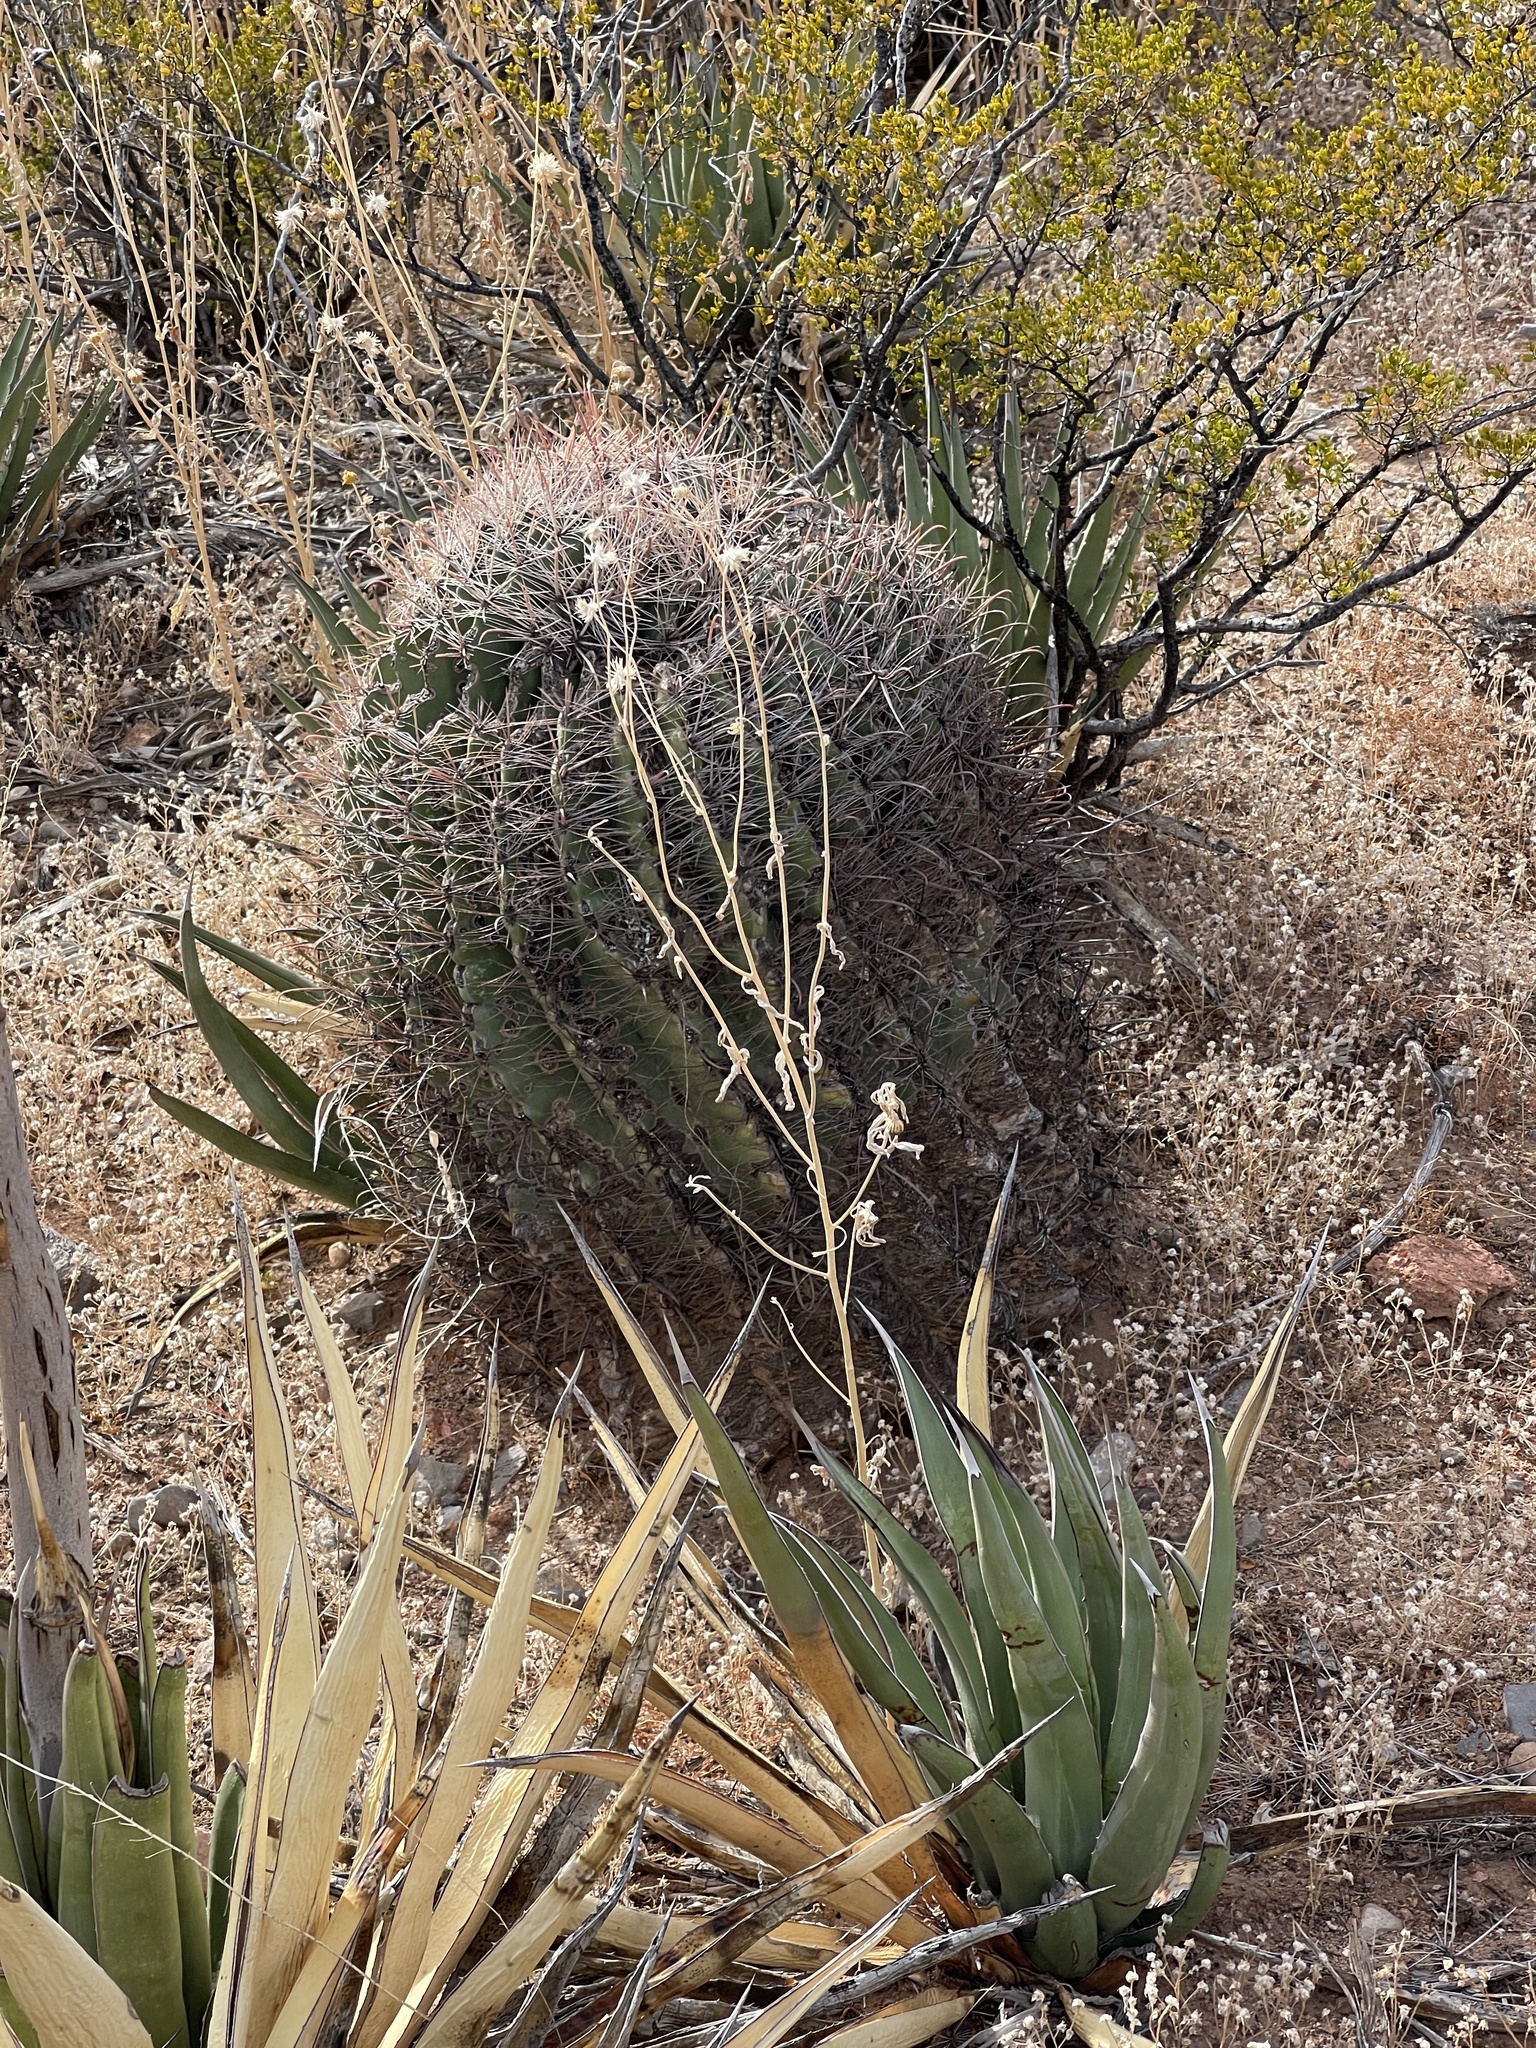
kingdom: Plantae
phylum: Tracheophyta
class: Magnoliopsida
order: Caryophyllales
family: Cactaceae
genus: Ferocactus
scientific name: Ferocactus wislizeni
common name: Candy barrel cactus
